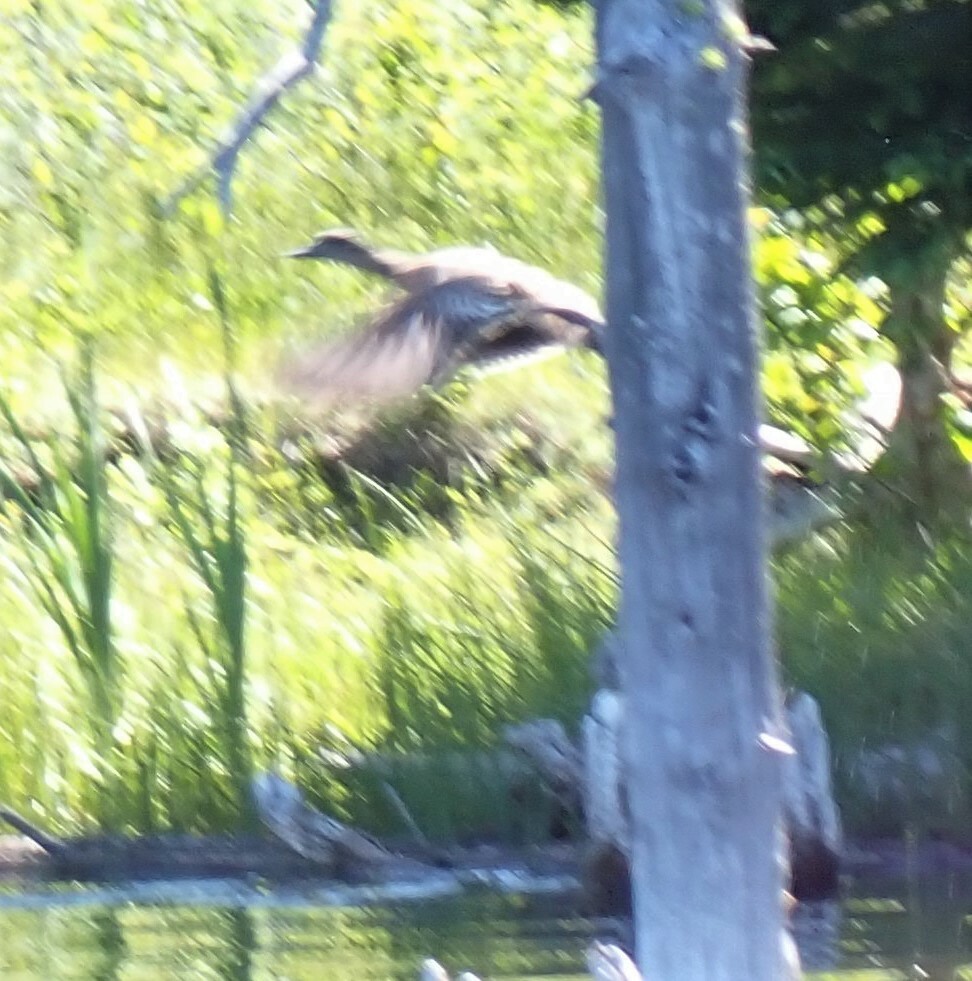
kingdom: Animalia
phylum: Chordata
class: Aves
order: Anseriformes
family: Anatidae
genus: Mareca
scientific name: Mareca americana
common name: American wigeon
